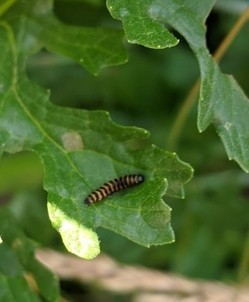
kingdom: Animalia
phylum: Arthropoda
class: Insecta
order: Lepidoptera
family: Erebidae
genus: Tyria
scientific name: Tyria jacobaeae
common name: Cinnabar
